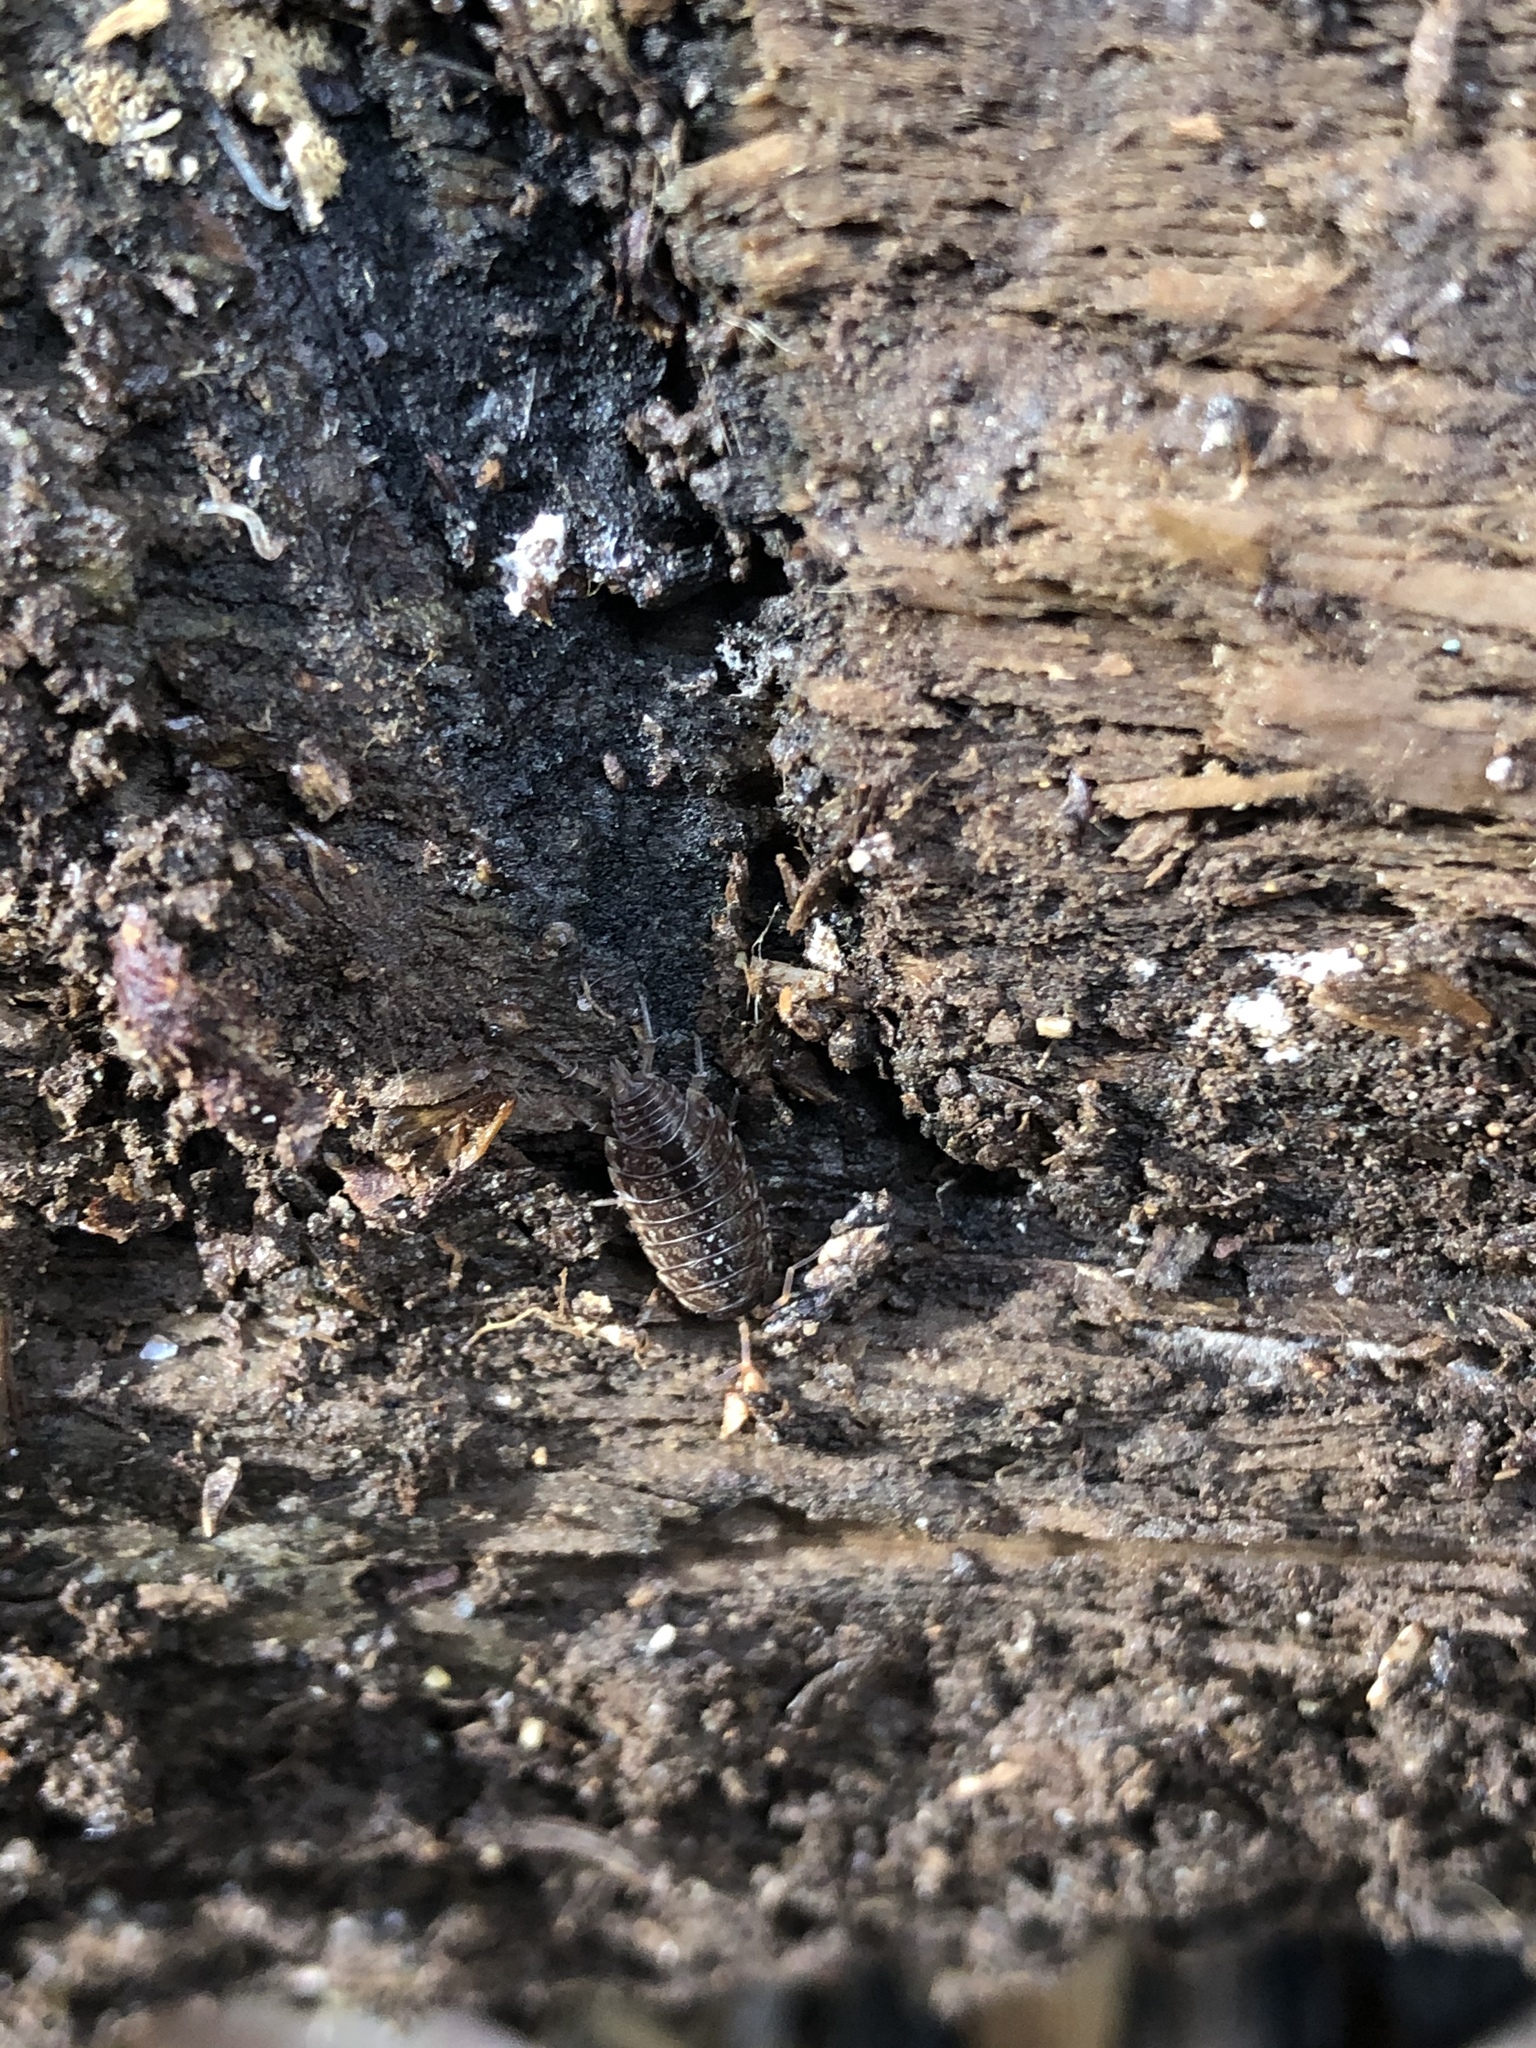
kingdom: Animalia
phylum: Arthropoda
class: Malacostraca
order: Isopoda
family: Philosciidae
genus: Philoscia
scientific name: Philoscia muscorum
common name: Common striped woodlouse
